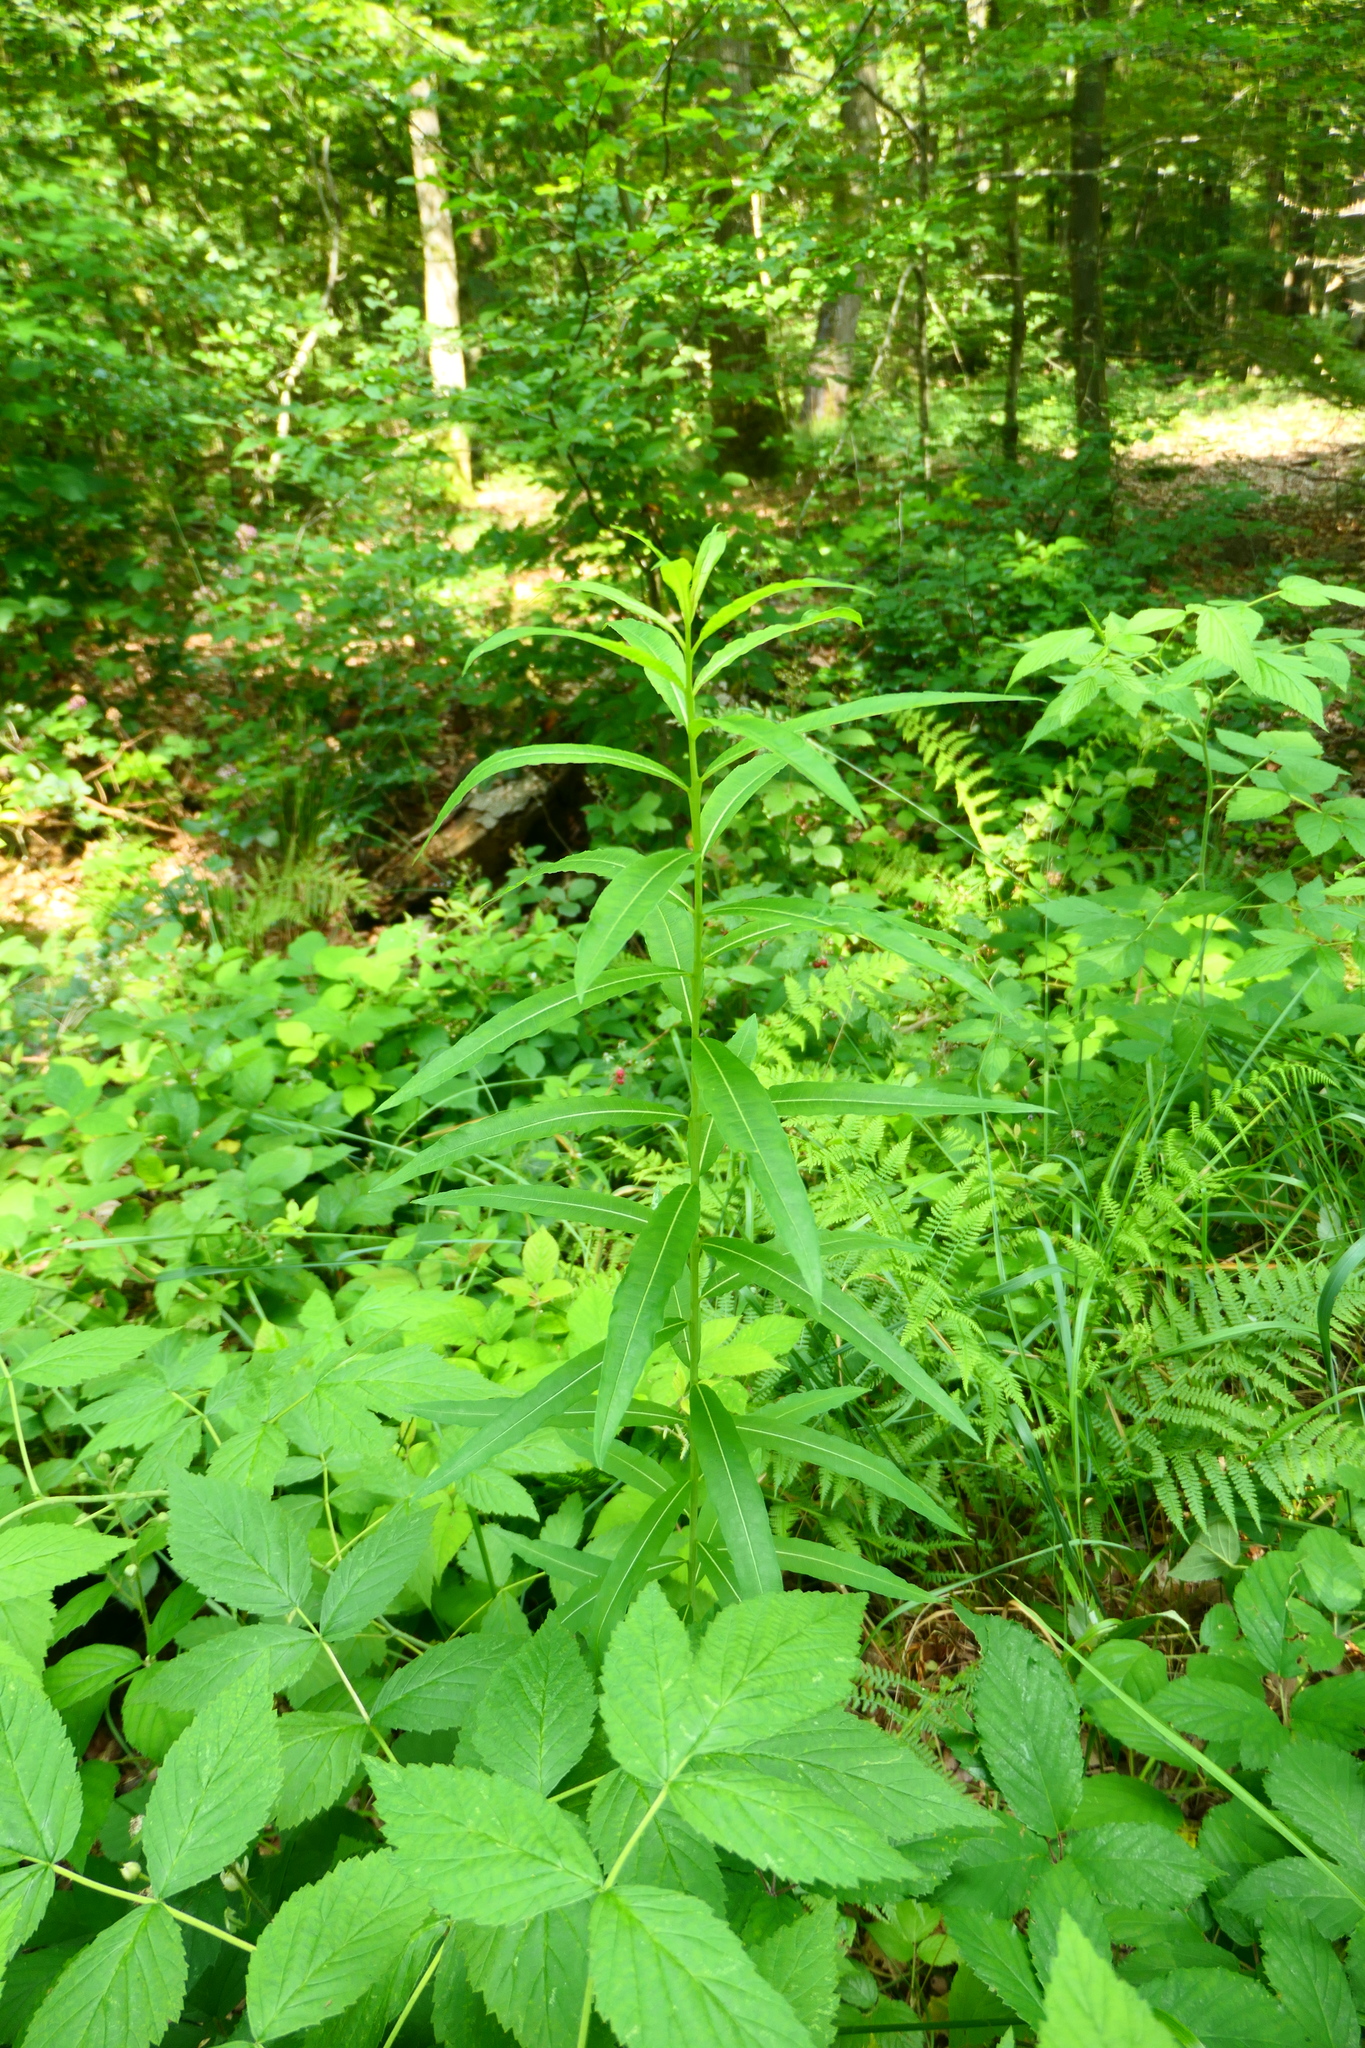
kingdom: Plantae
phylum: Tracheophyta
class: Magnoliopsida
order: Myrtales
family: Onagraceae
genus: Chamaenerion
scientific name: Chamaenerion angustifolium
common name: Fireweed
